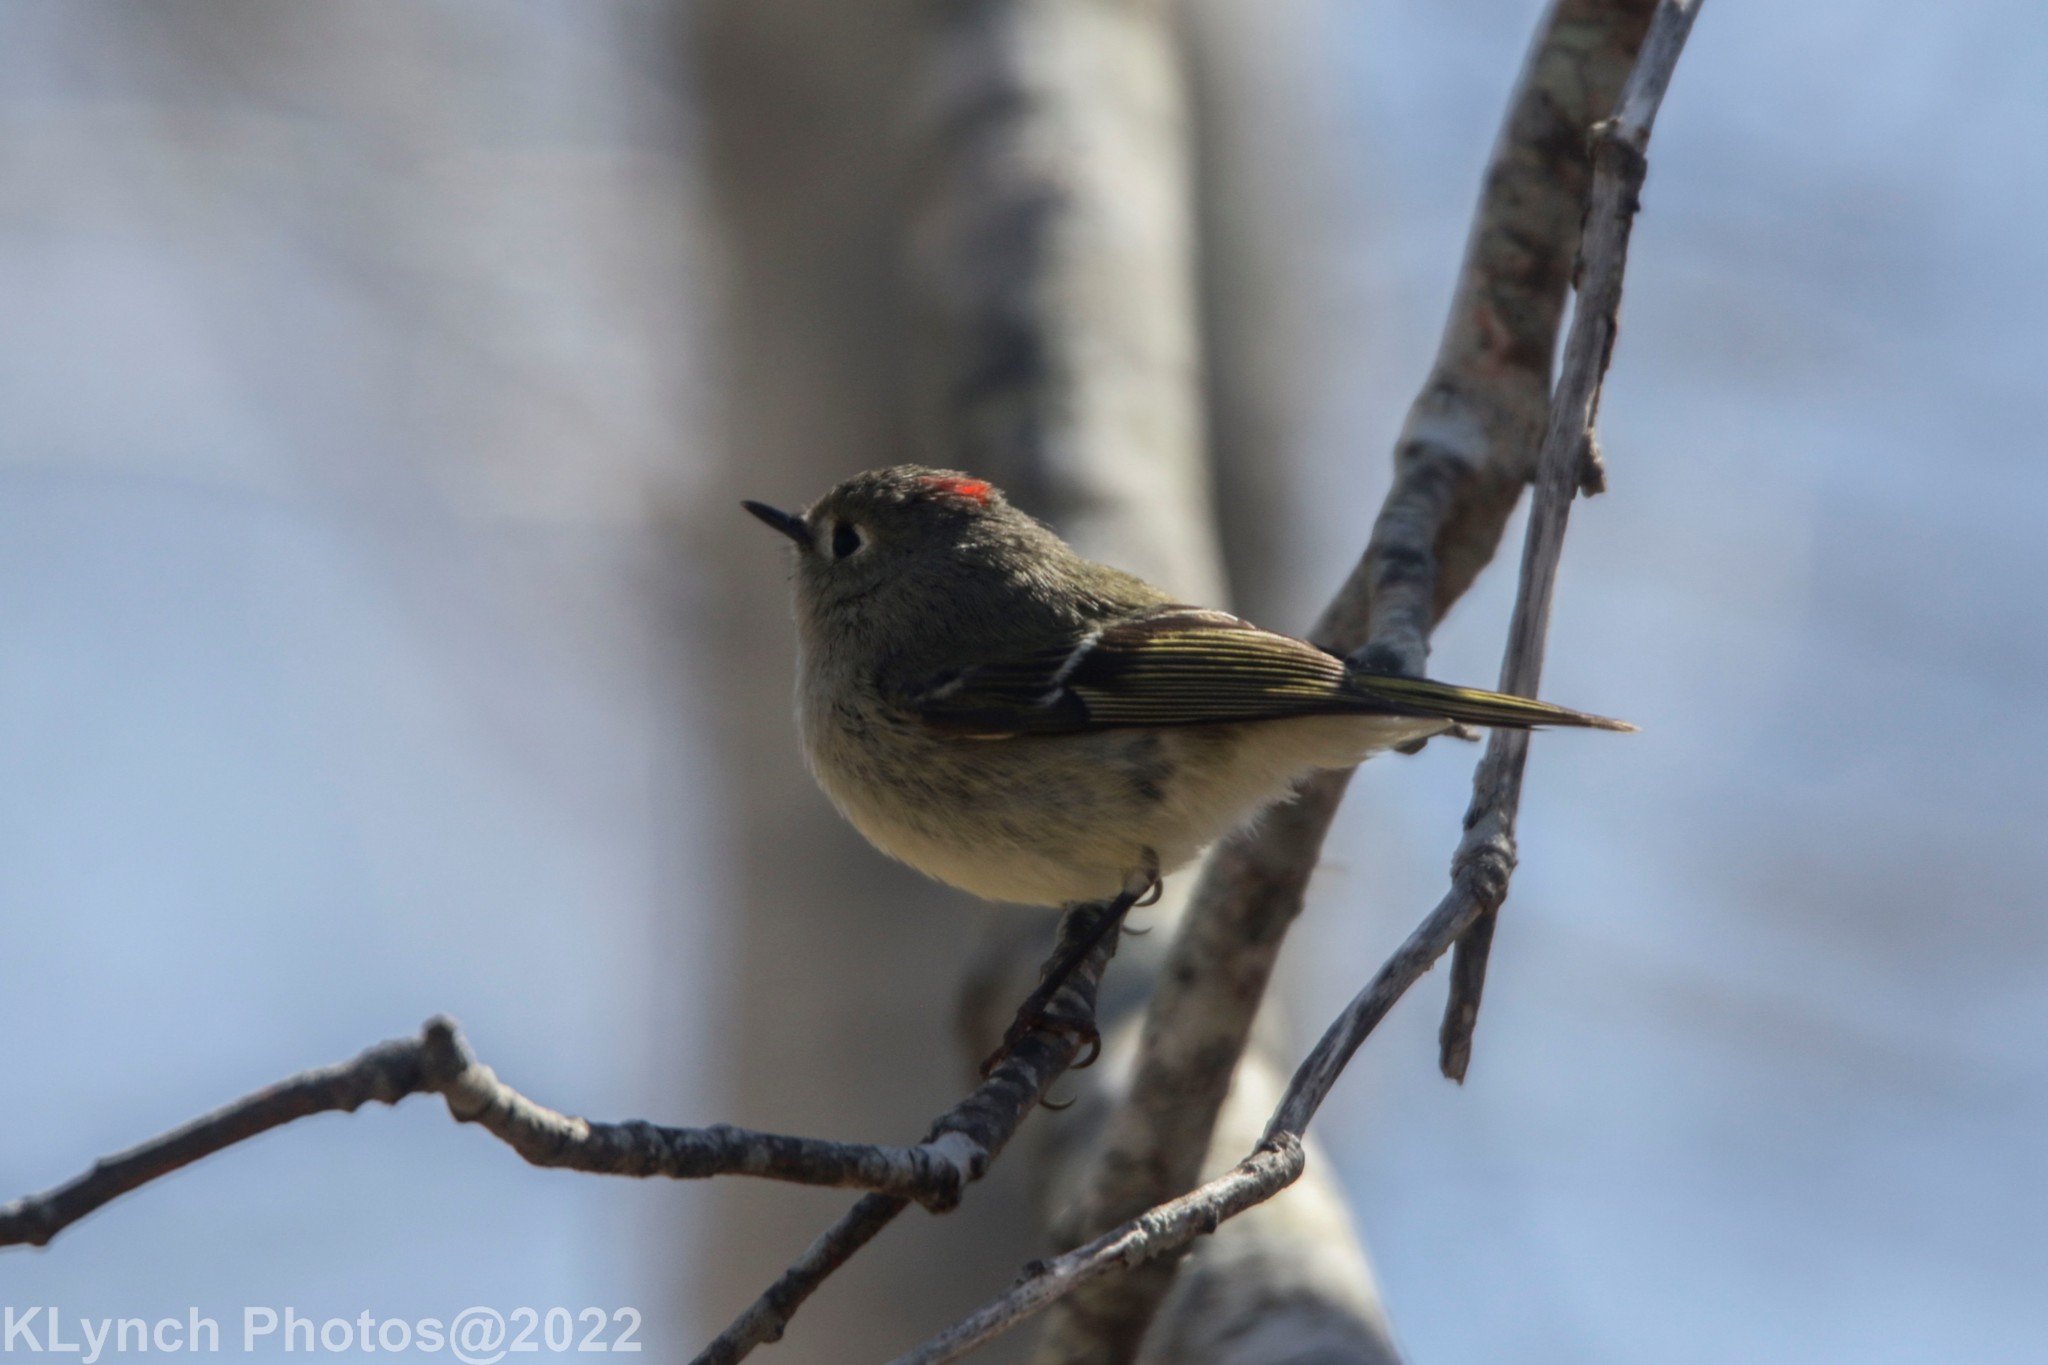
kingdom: Animalia
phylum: Chordata
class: Aves
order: Passeriformes
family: Regulidae
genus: Regulus
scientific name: Regulus calendula
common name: Ruby-crowned kinglet
